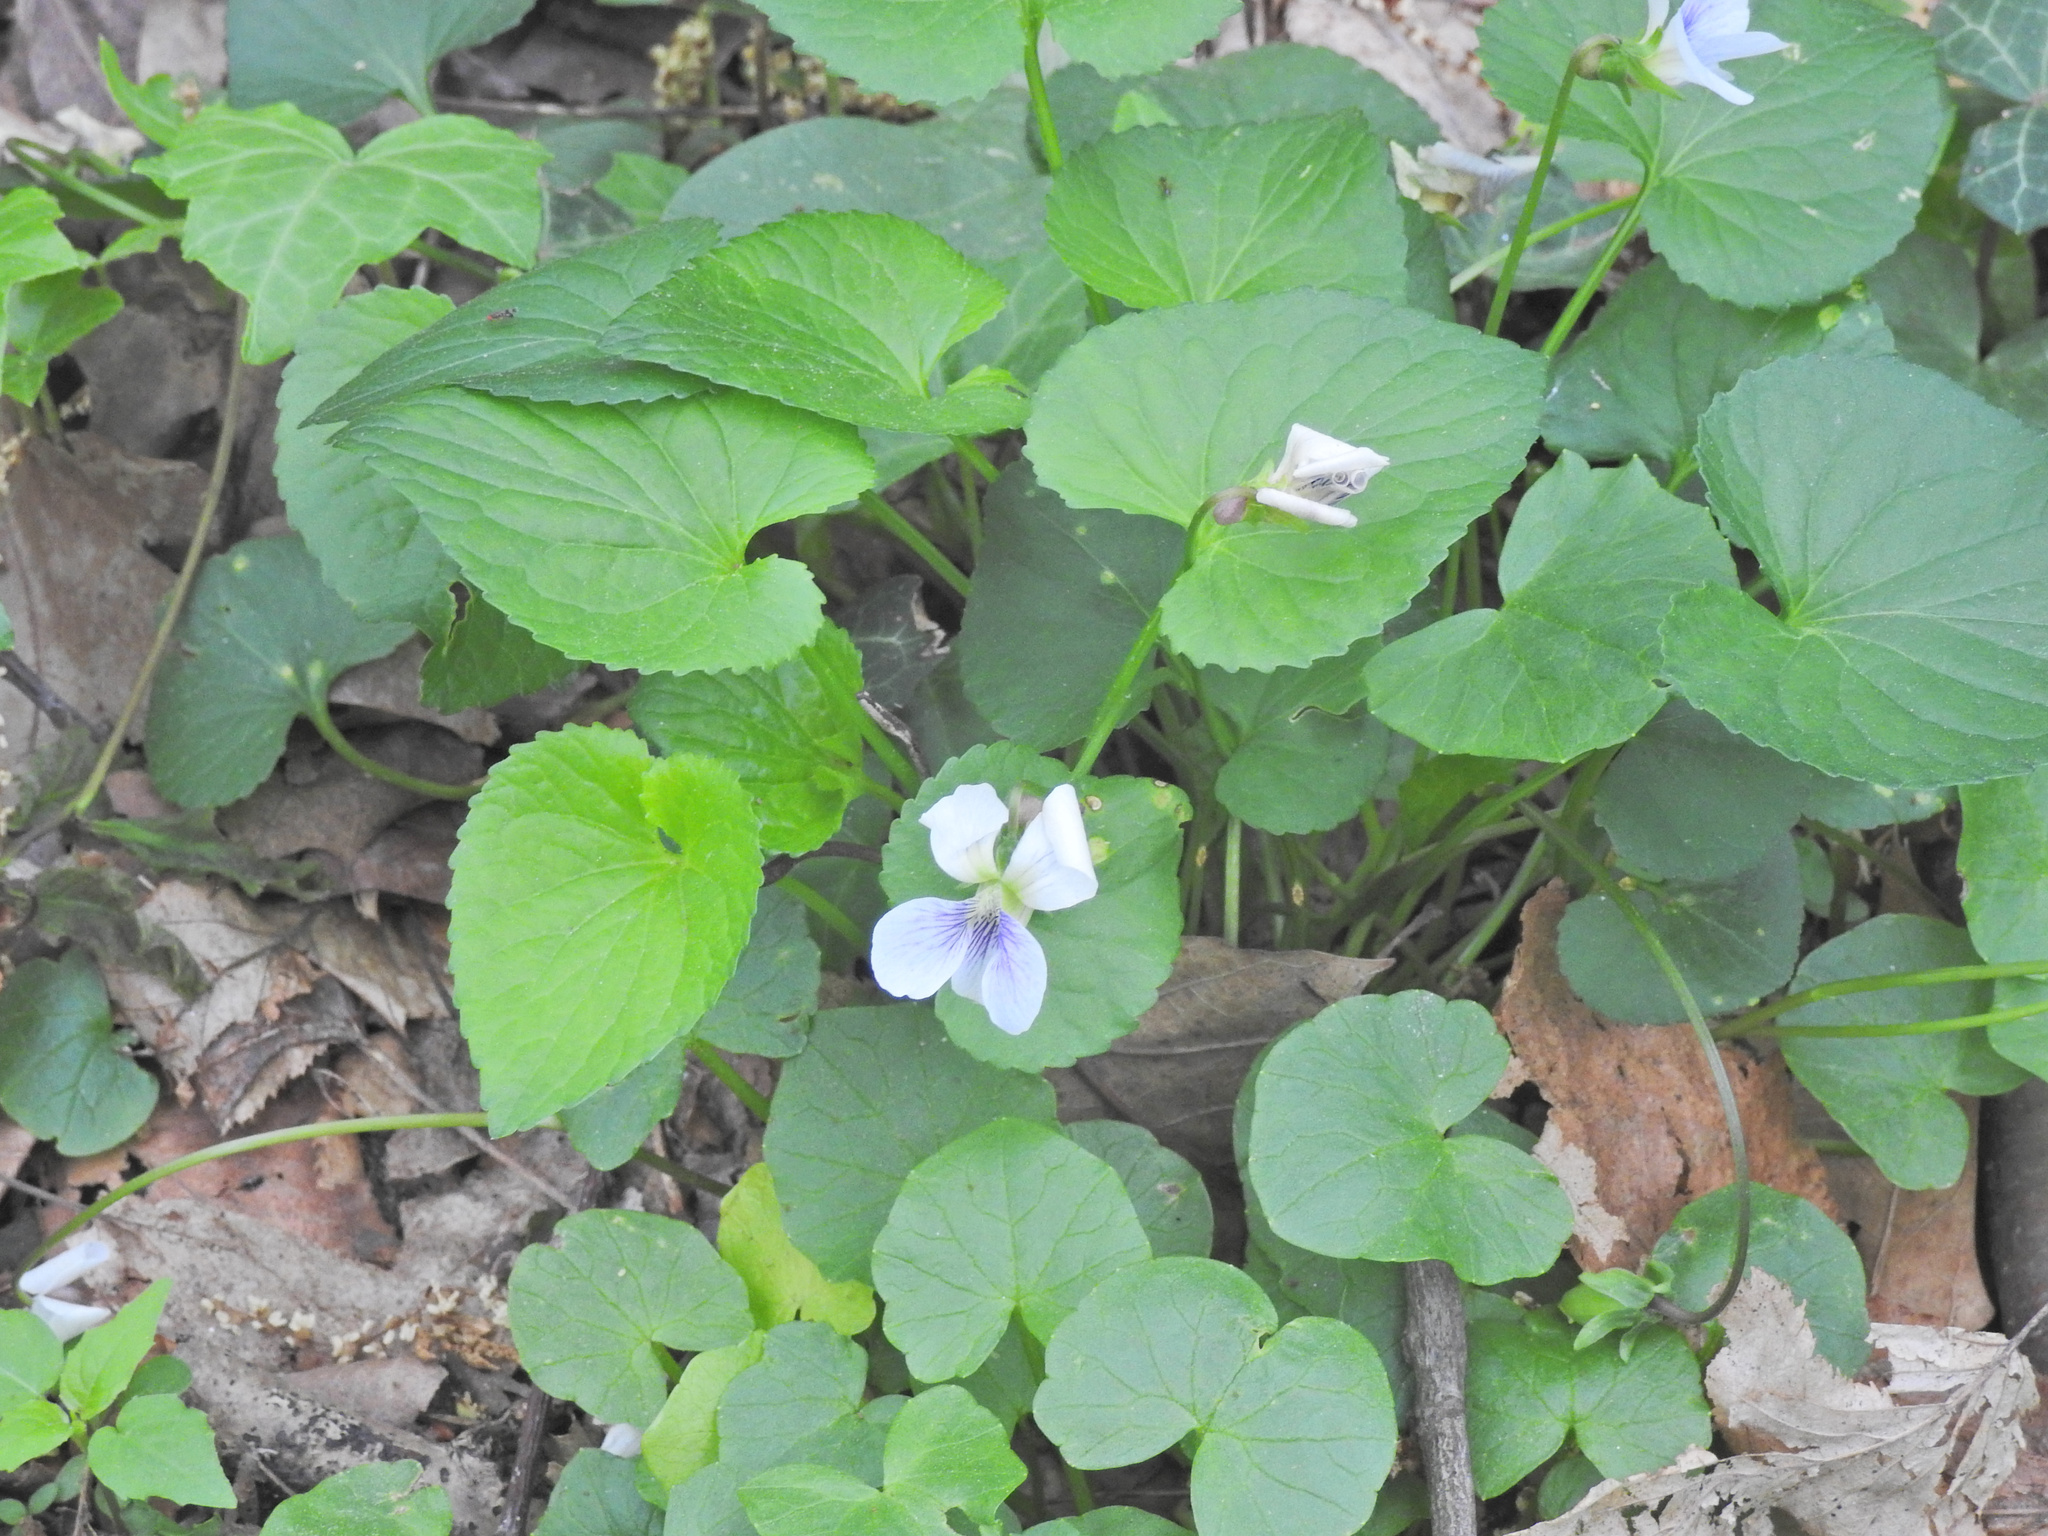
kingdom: Plantae
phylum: Tracheophyta
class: Magnoliopsida
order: Malpighiales
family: Violaceae
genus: Viola
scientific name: Viola sororia
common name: Dooryard violet
